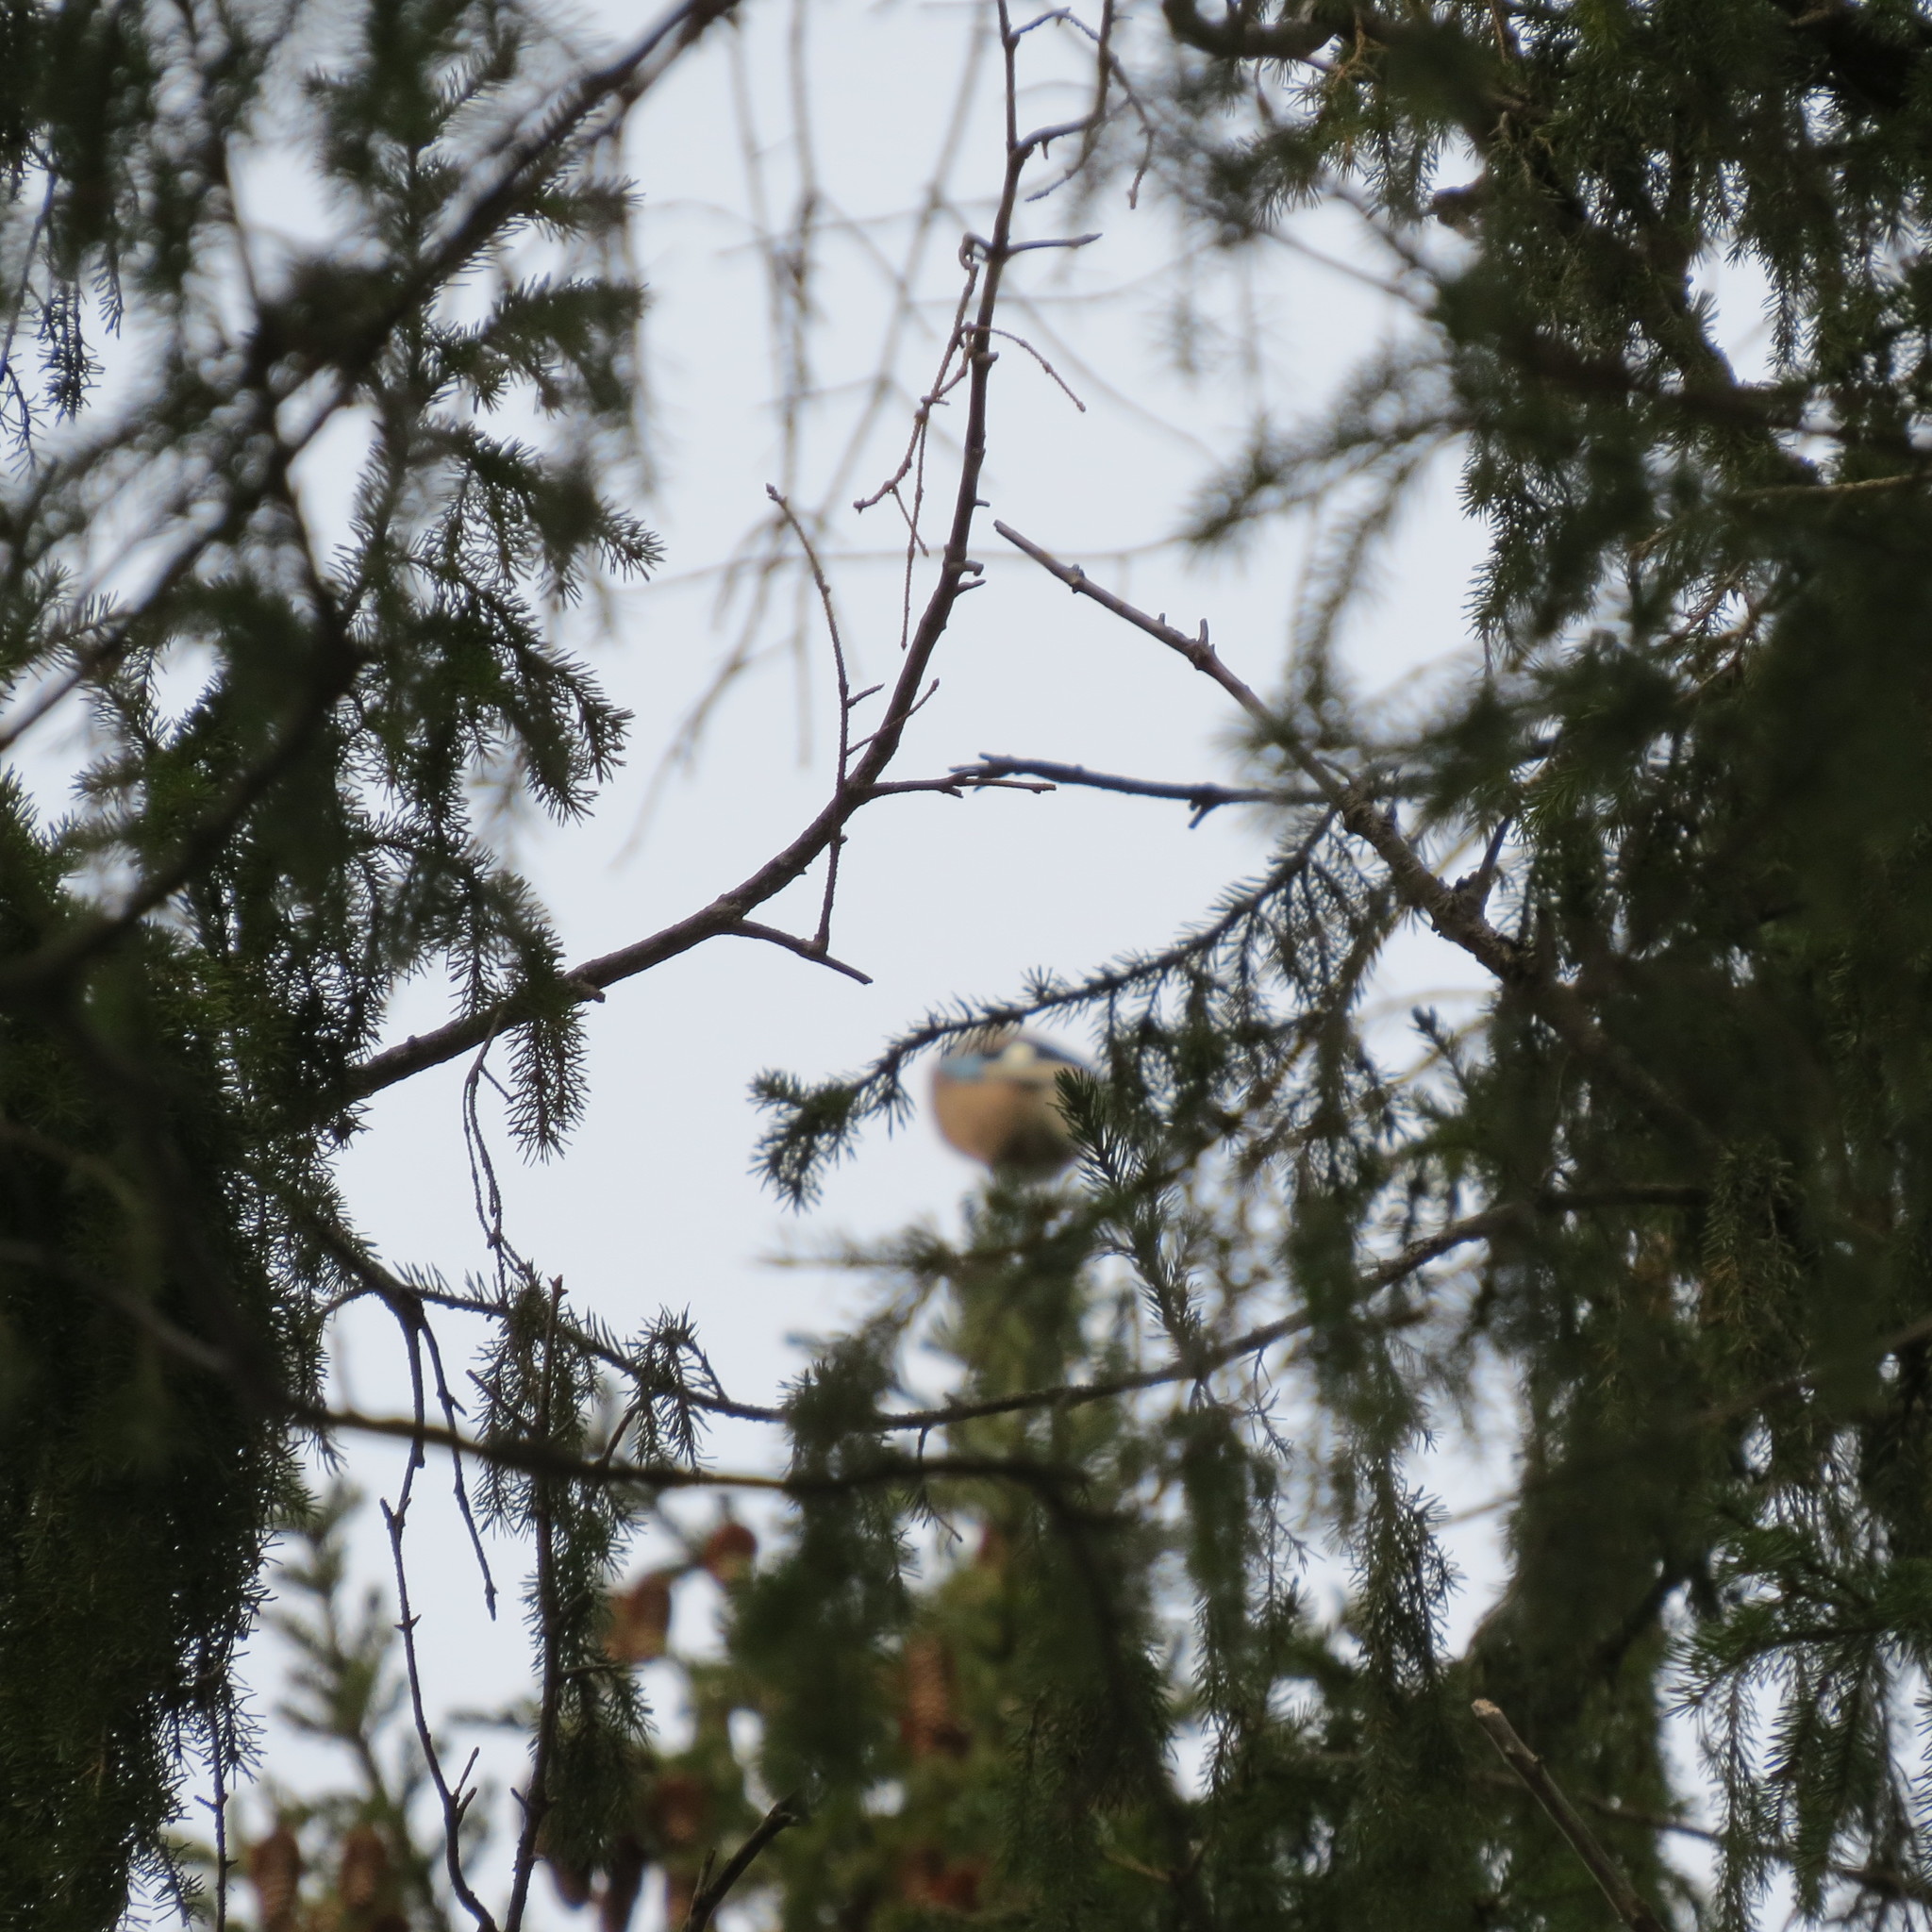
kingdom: Animalia
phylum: Chordata
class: Aves
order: Passeriformes
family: Corvidae
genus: Garrulus
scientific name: Garrulus glandarius
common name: Eurasian jay
